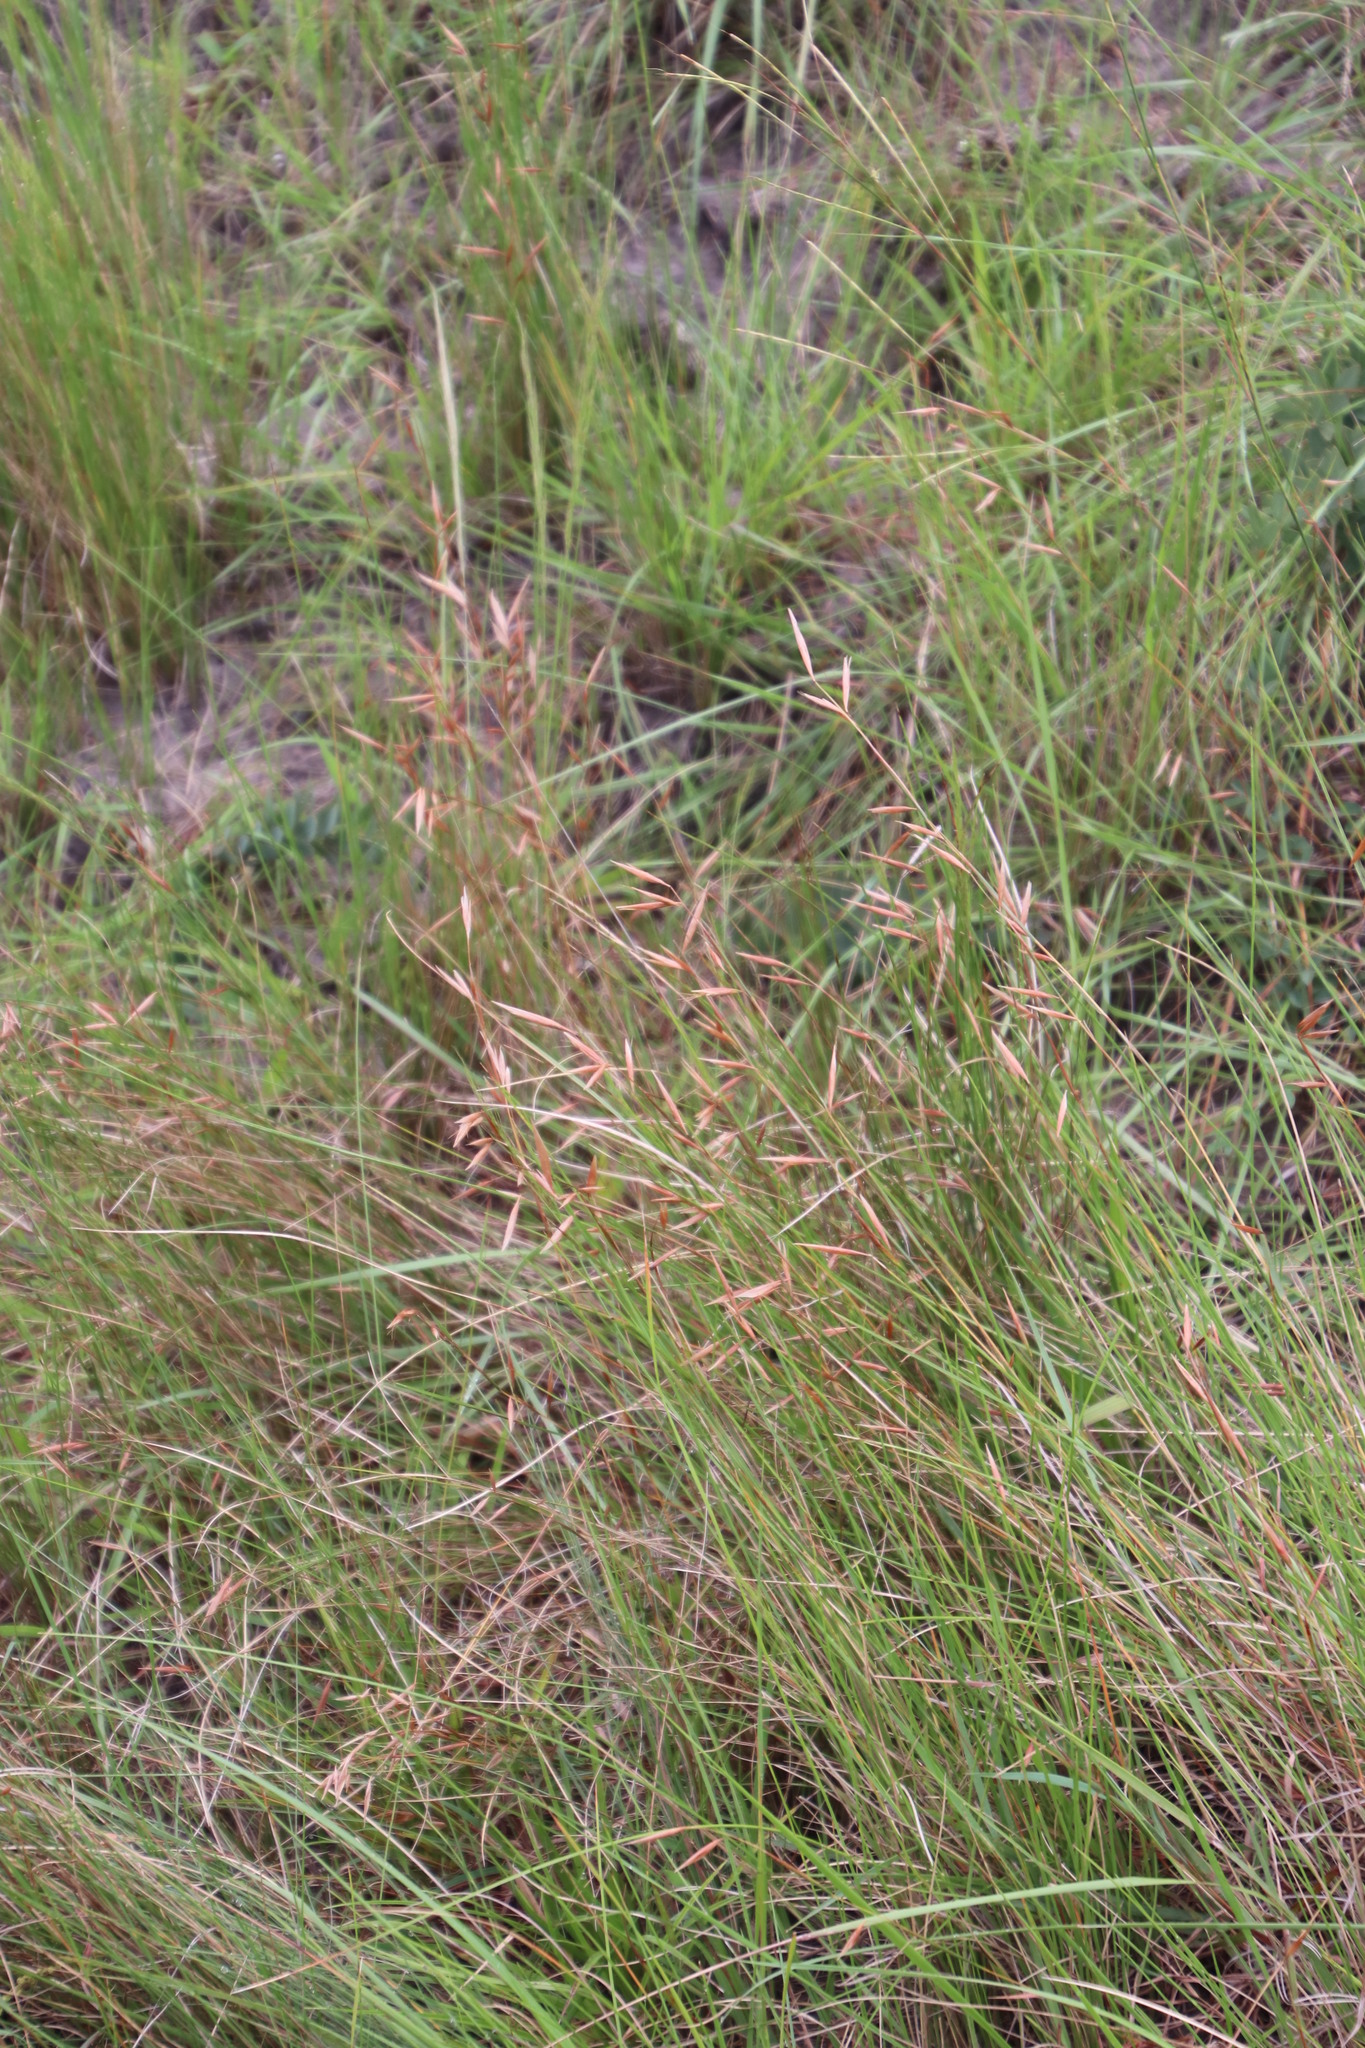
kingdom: Plantae
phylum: Tracheophyta
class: Liliopsida
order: Poales
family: Poaceae
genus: Monocymbium
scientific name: Monocymbium ceresiiforme
